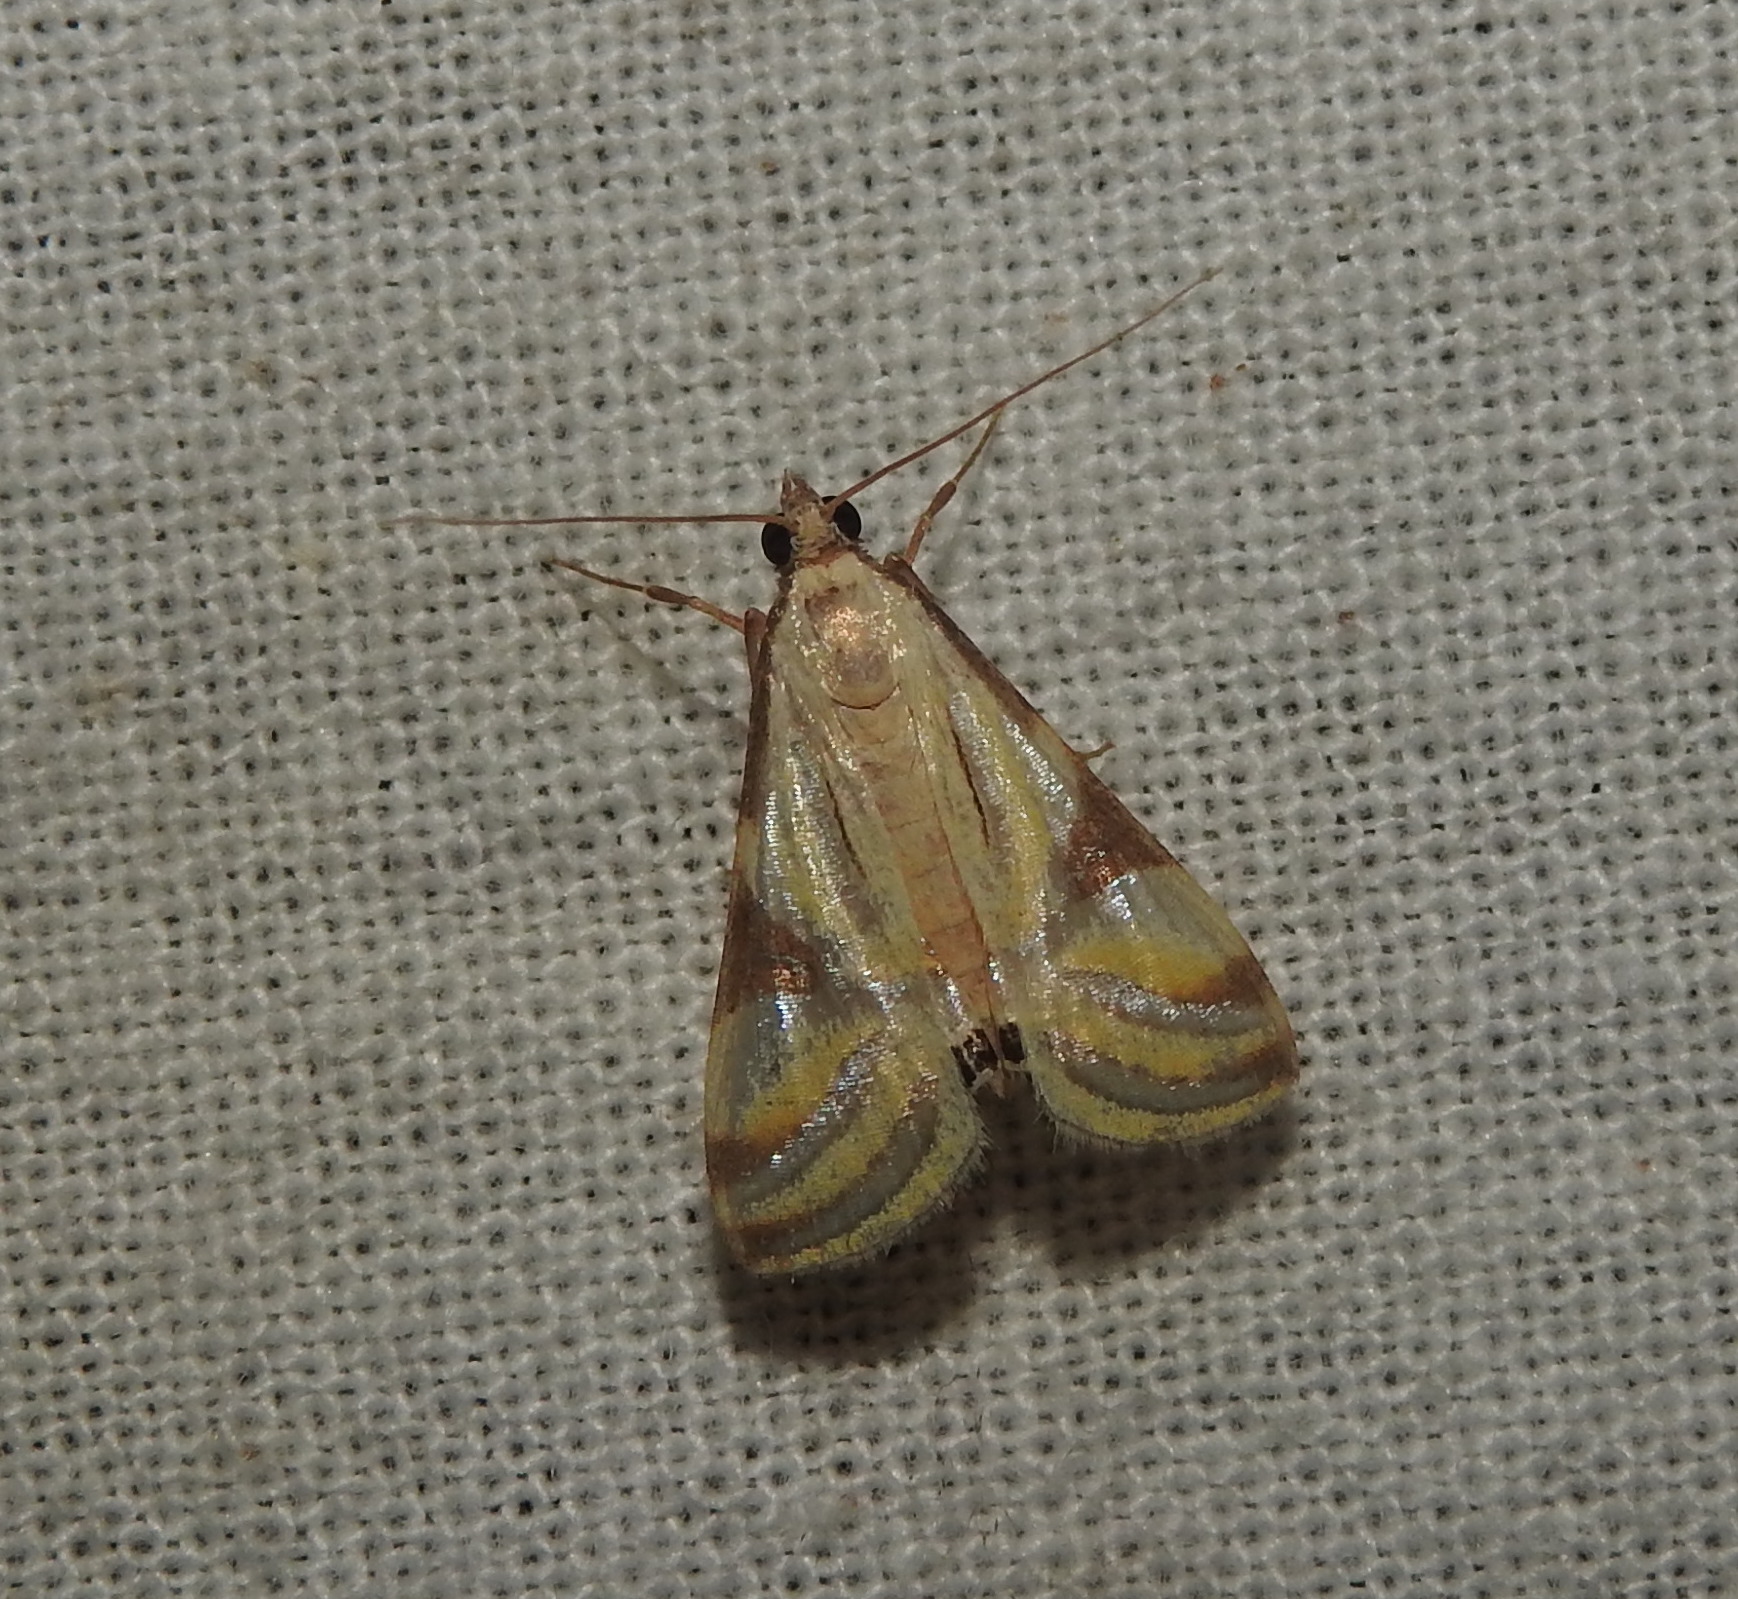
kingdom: Animalia
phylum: Arthropoda
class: Insecta
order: Lepidoptera
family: Crambidae
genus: Talanga
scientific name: Talanga sexpunctalis
